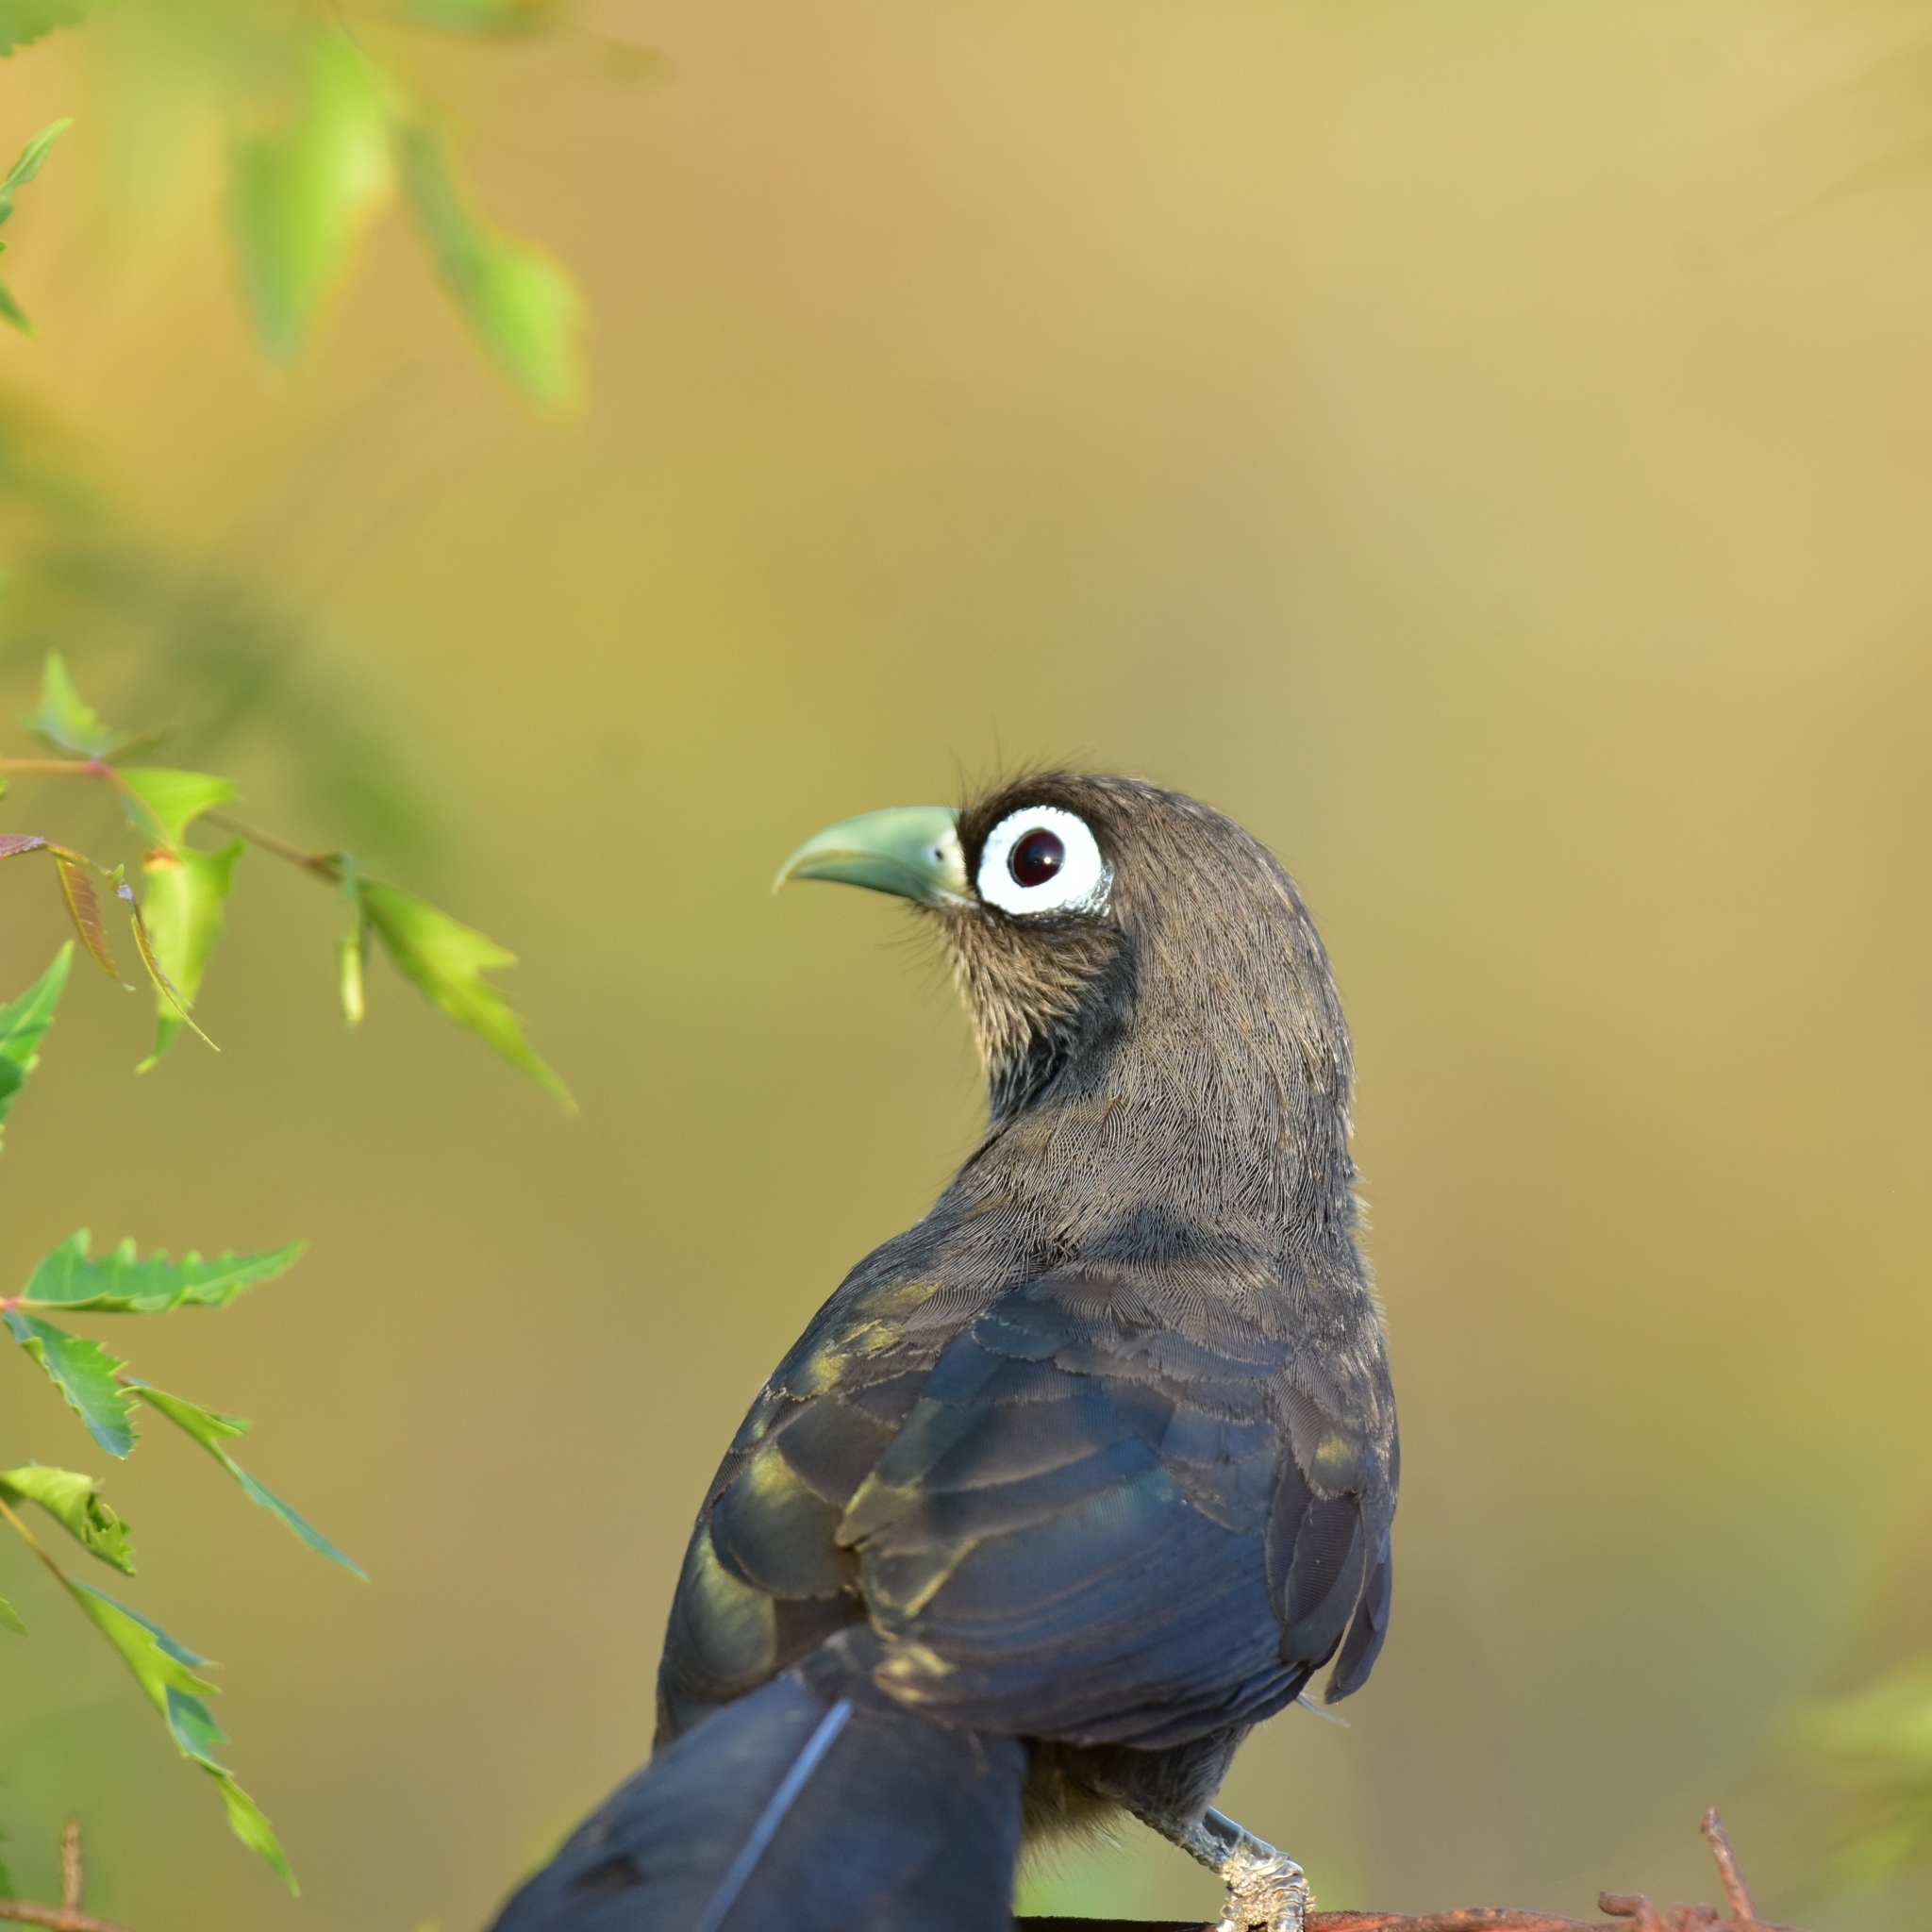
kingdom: Animalia
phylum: Chordata
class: Aves
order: Cuculiformes
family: Cuculidae
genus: Rhopodytes
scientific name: Rhopodytes viridirostris
